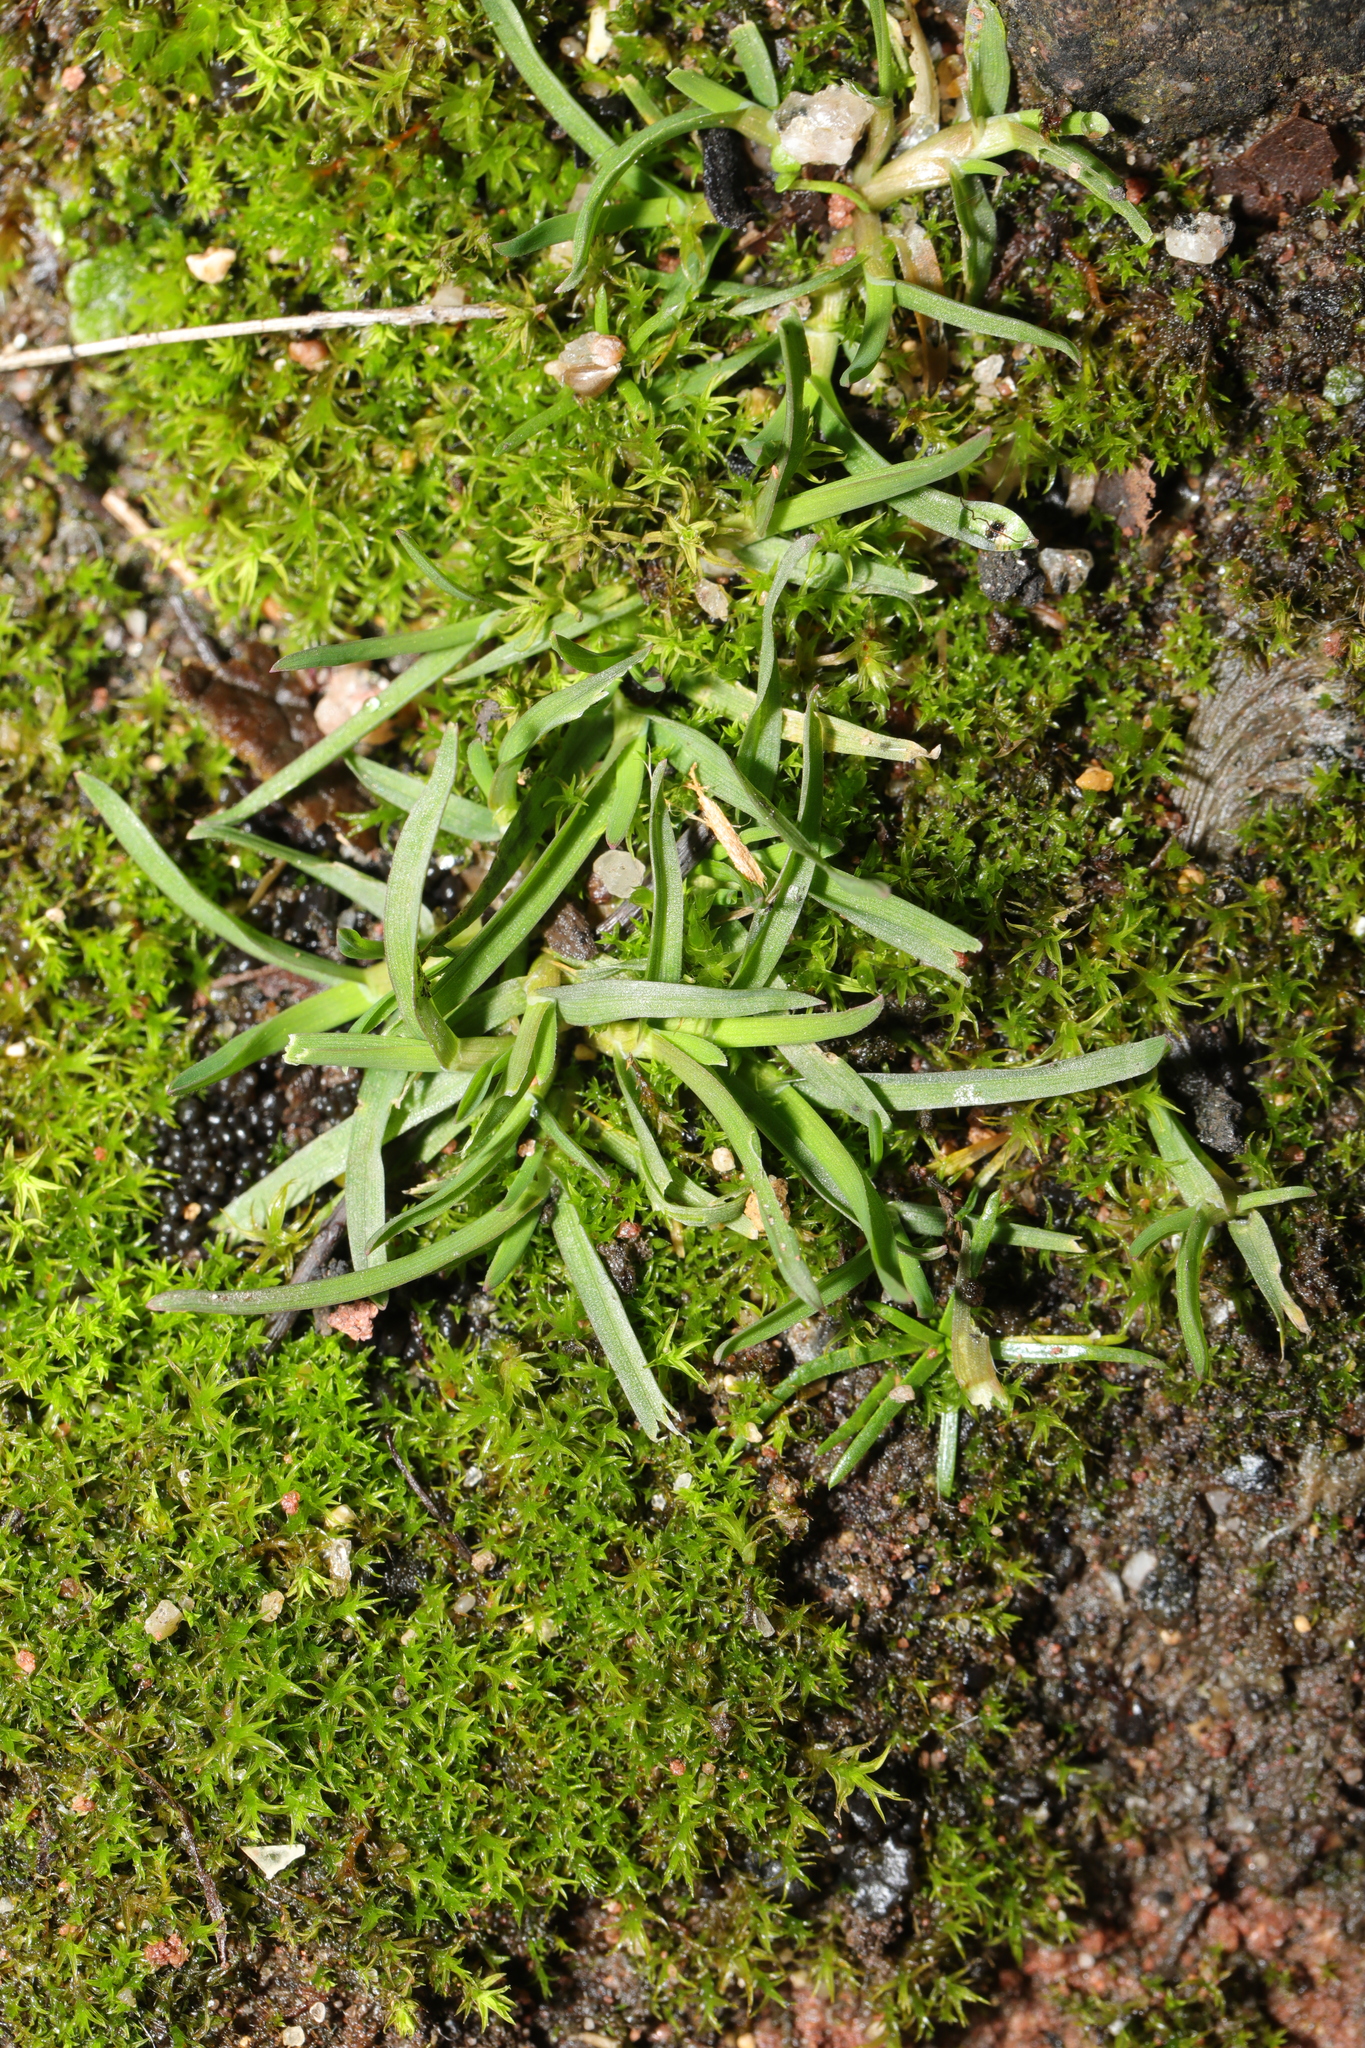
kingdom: Plantae
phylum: Tracheophyta
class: Liliopsida
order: Poales
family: Poaceae
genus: Poa
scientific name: Poa annua
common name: Annual bluegrass
